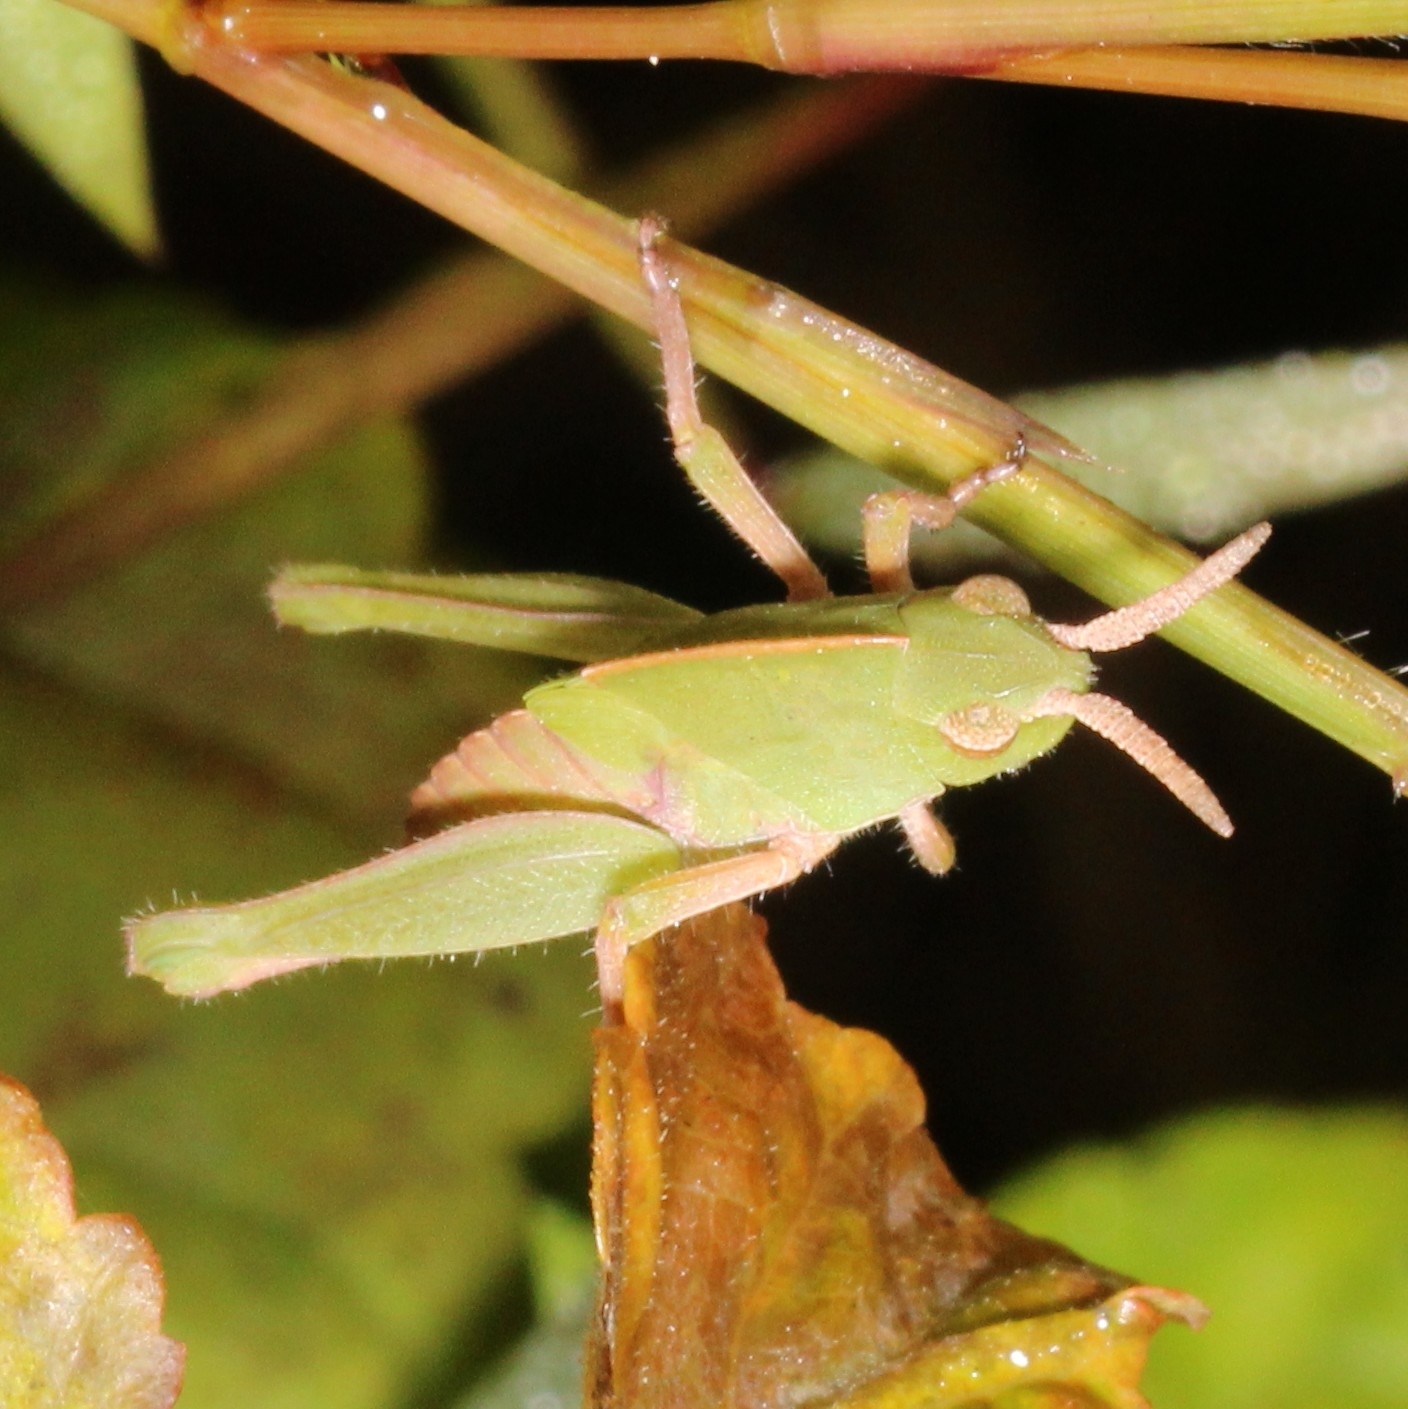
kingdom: Animalia
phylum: Arthropoda
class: Insecta
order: Orthoptera
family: Acrididae
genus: Chortophaga
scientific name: Chortophaga viridifasciata
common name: Green-striped grasshopper
